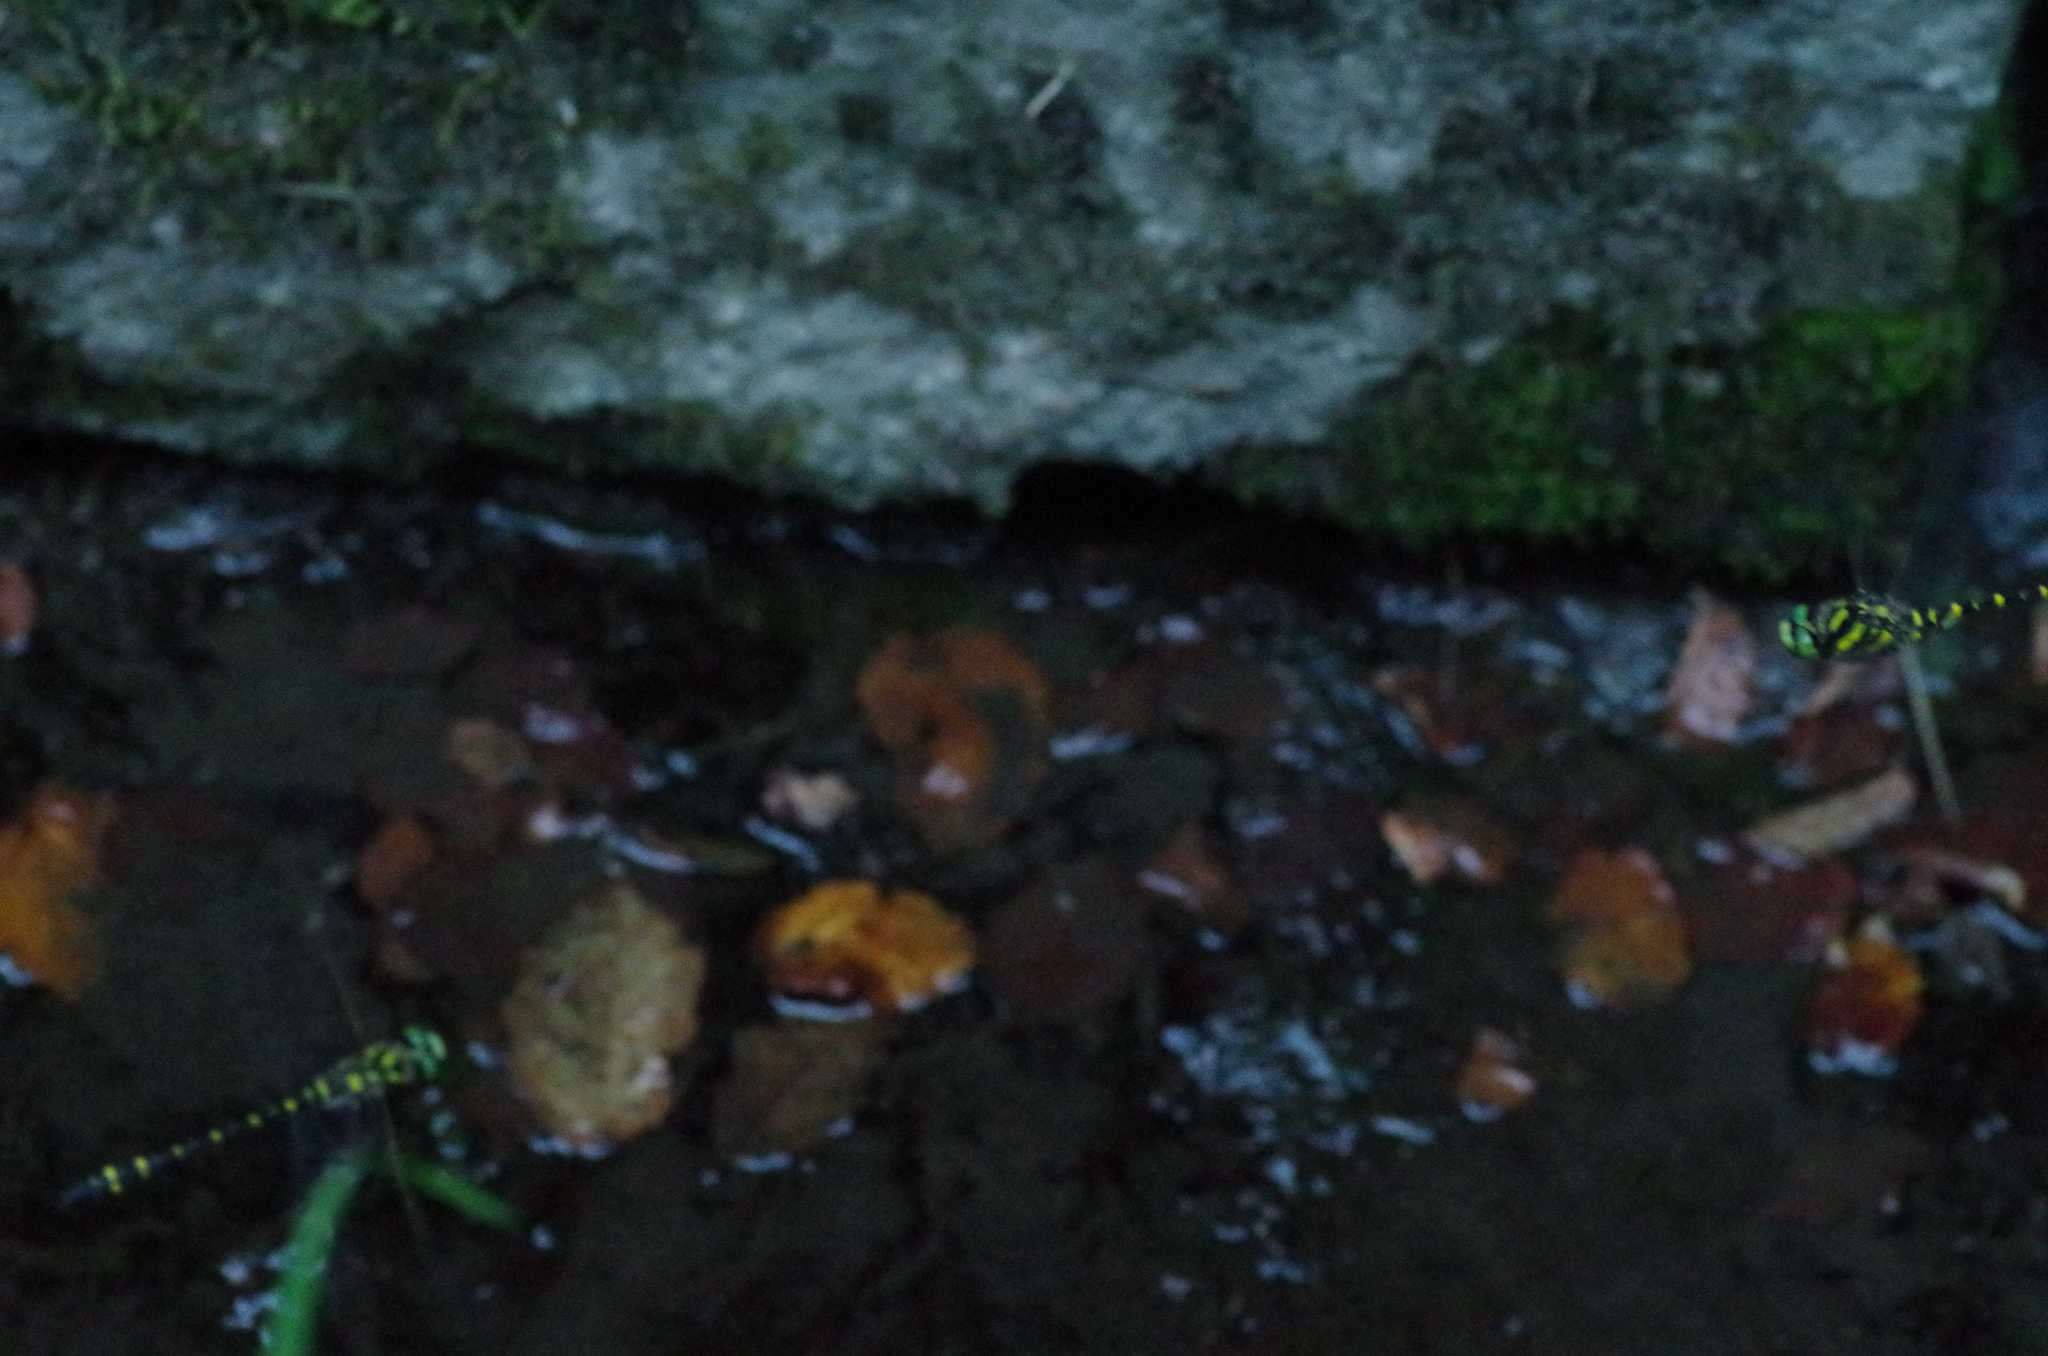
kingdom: Animalia
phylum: Arthropoda
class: Insecta
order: Odonata
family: Cordulegastridae
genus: Cordulegaster
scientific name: Cordulegaster boltonii
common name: Golden-ringed dragonfly
